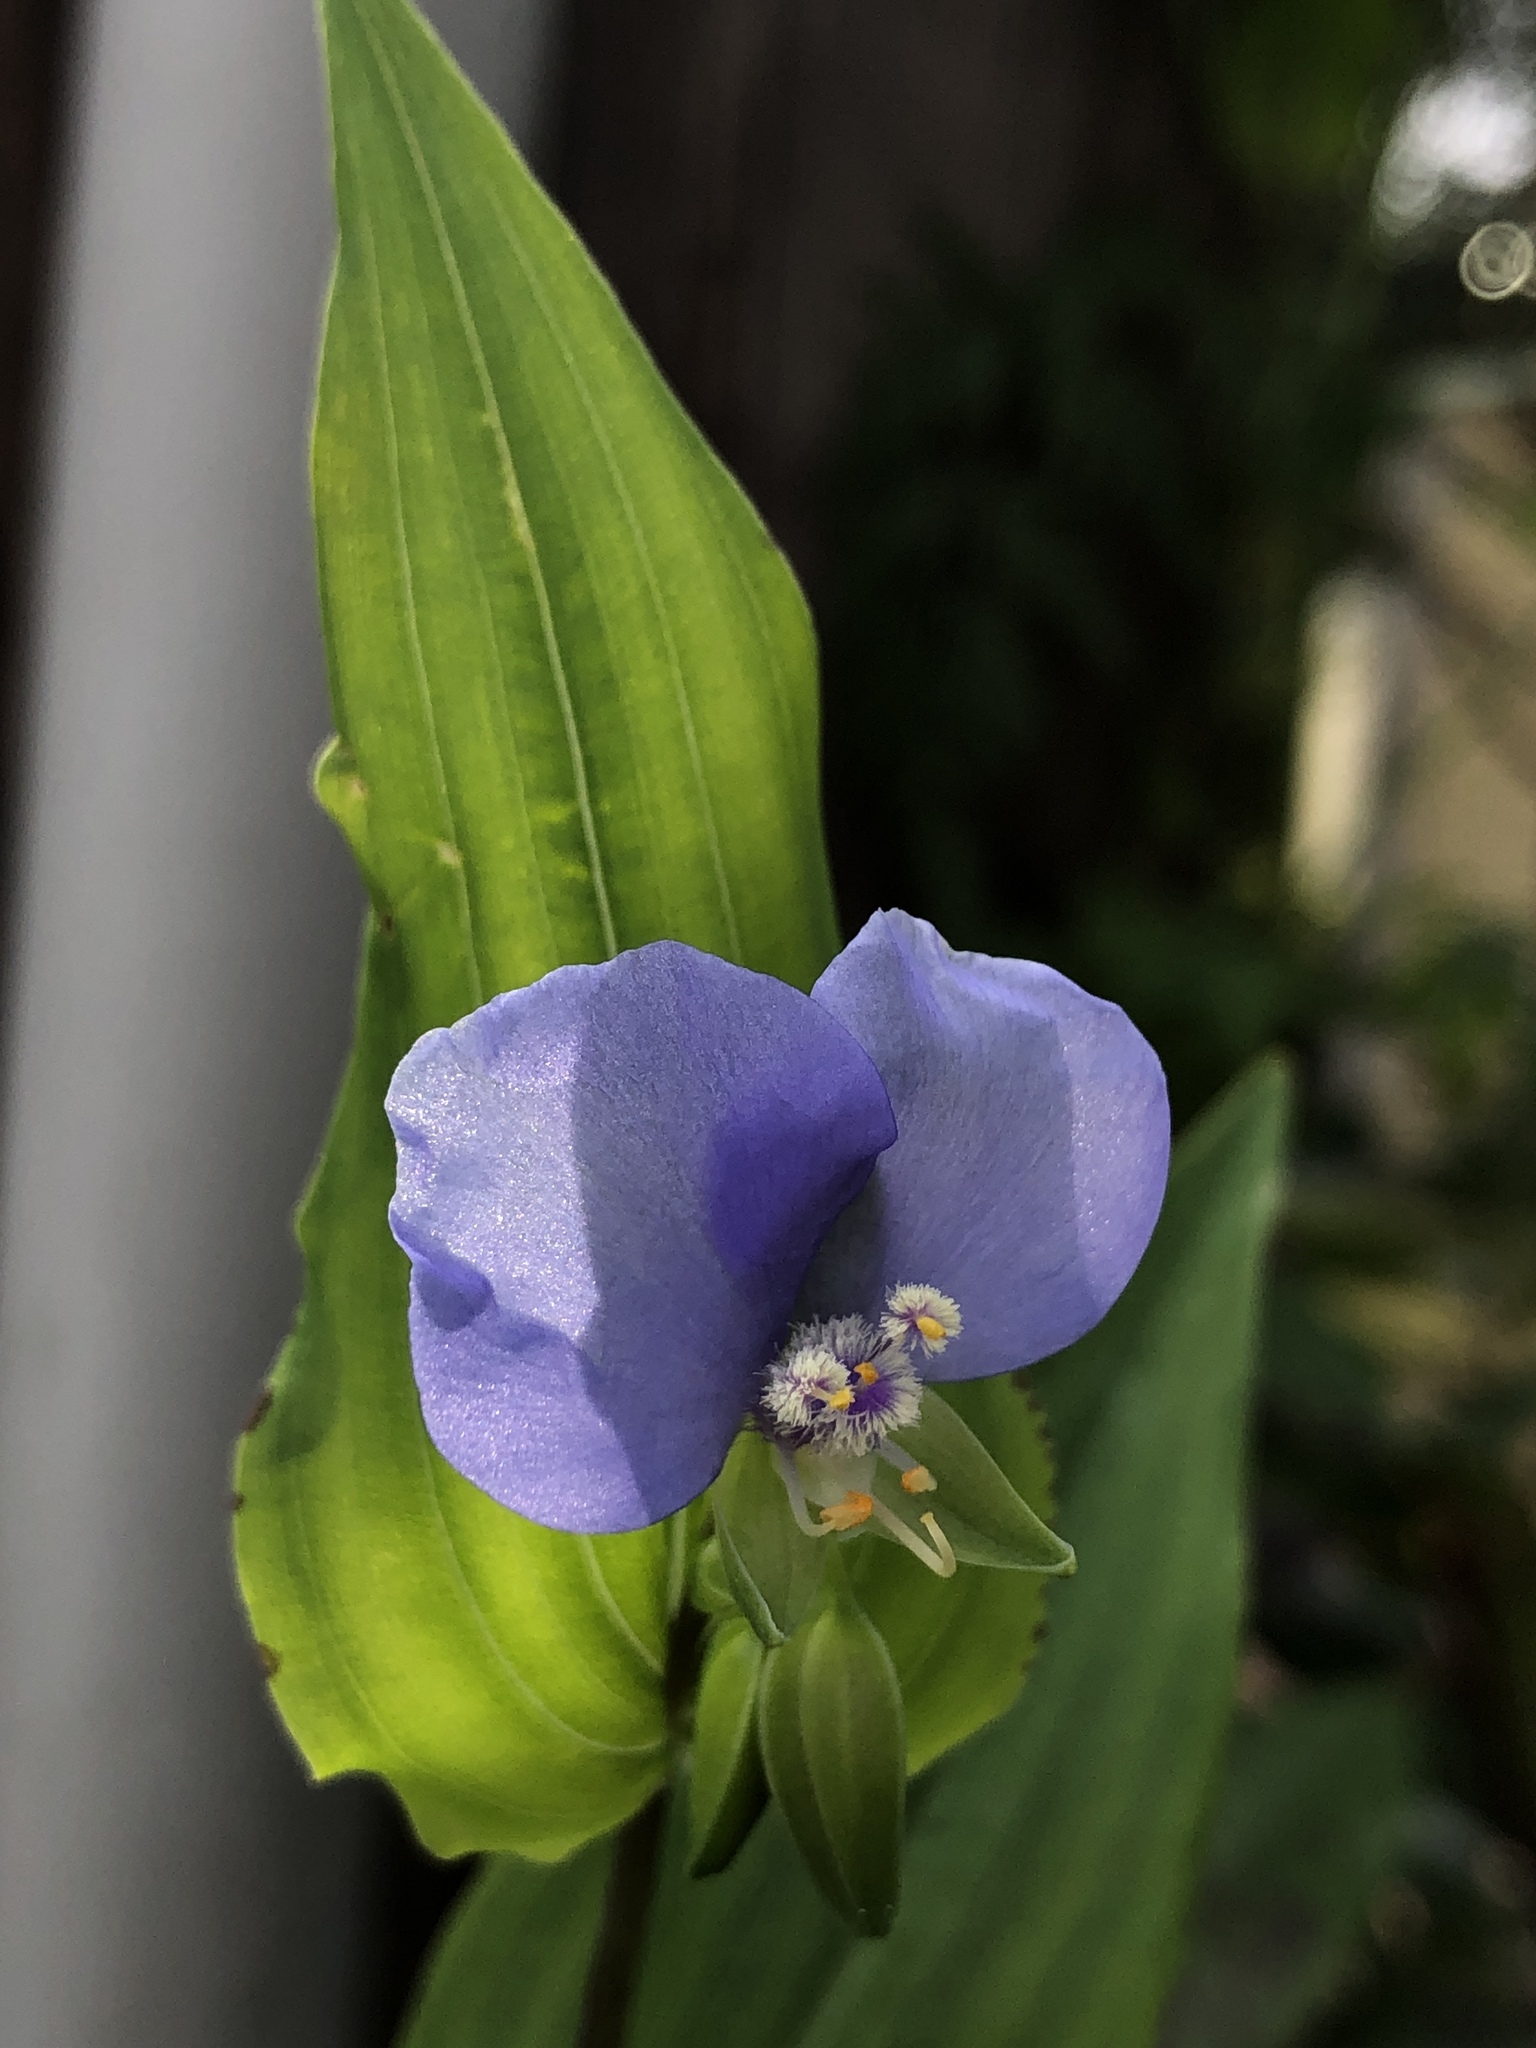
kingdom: Plantae
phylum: Tracheophyta
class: Liliopsida
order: Commelinales
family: Commelinaceae
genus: Tinantia
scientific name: Tinantia anomala
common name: False dayflower
